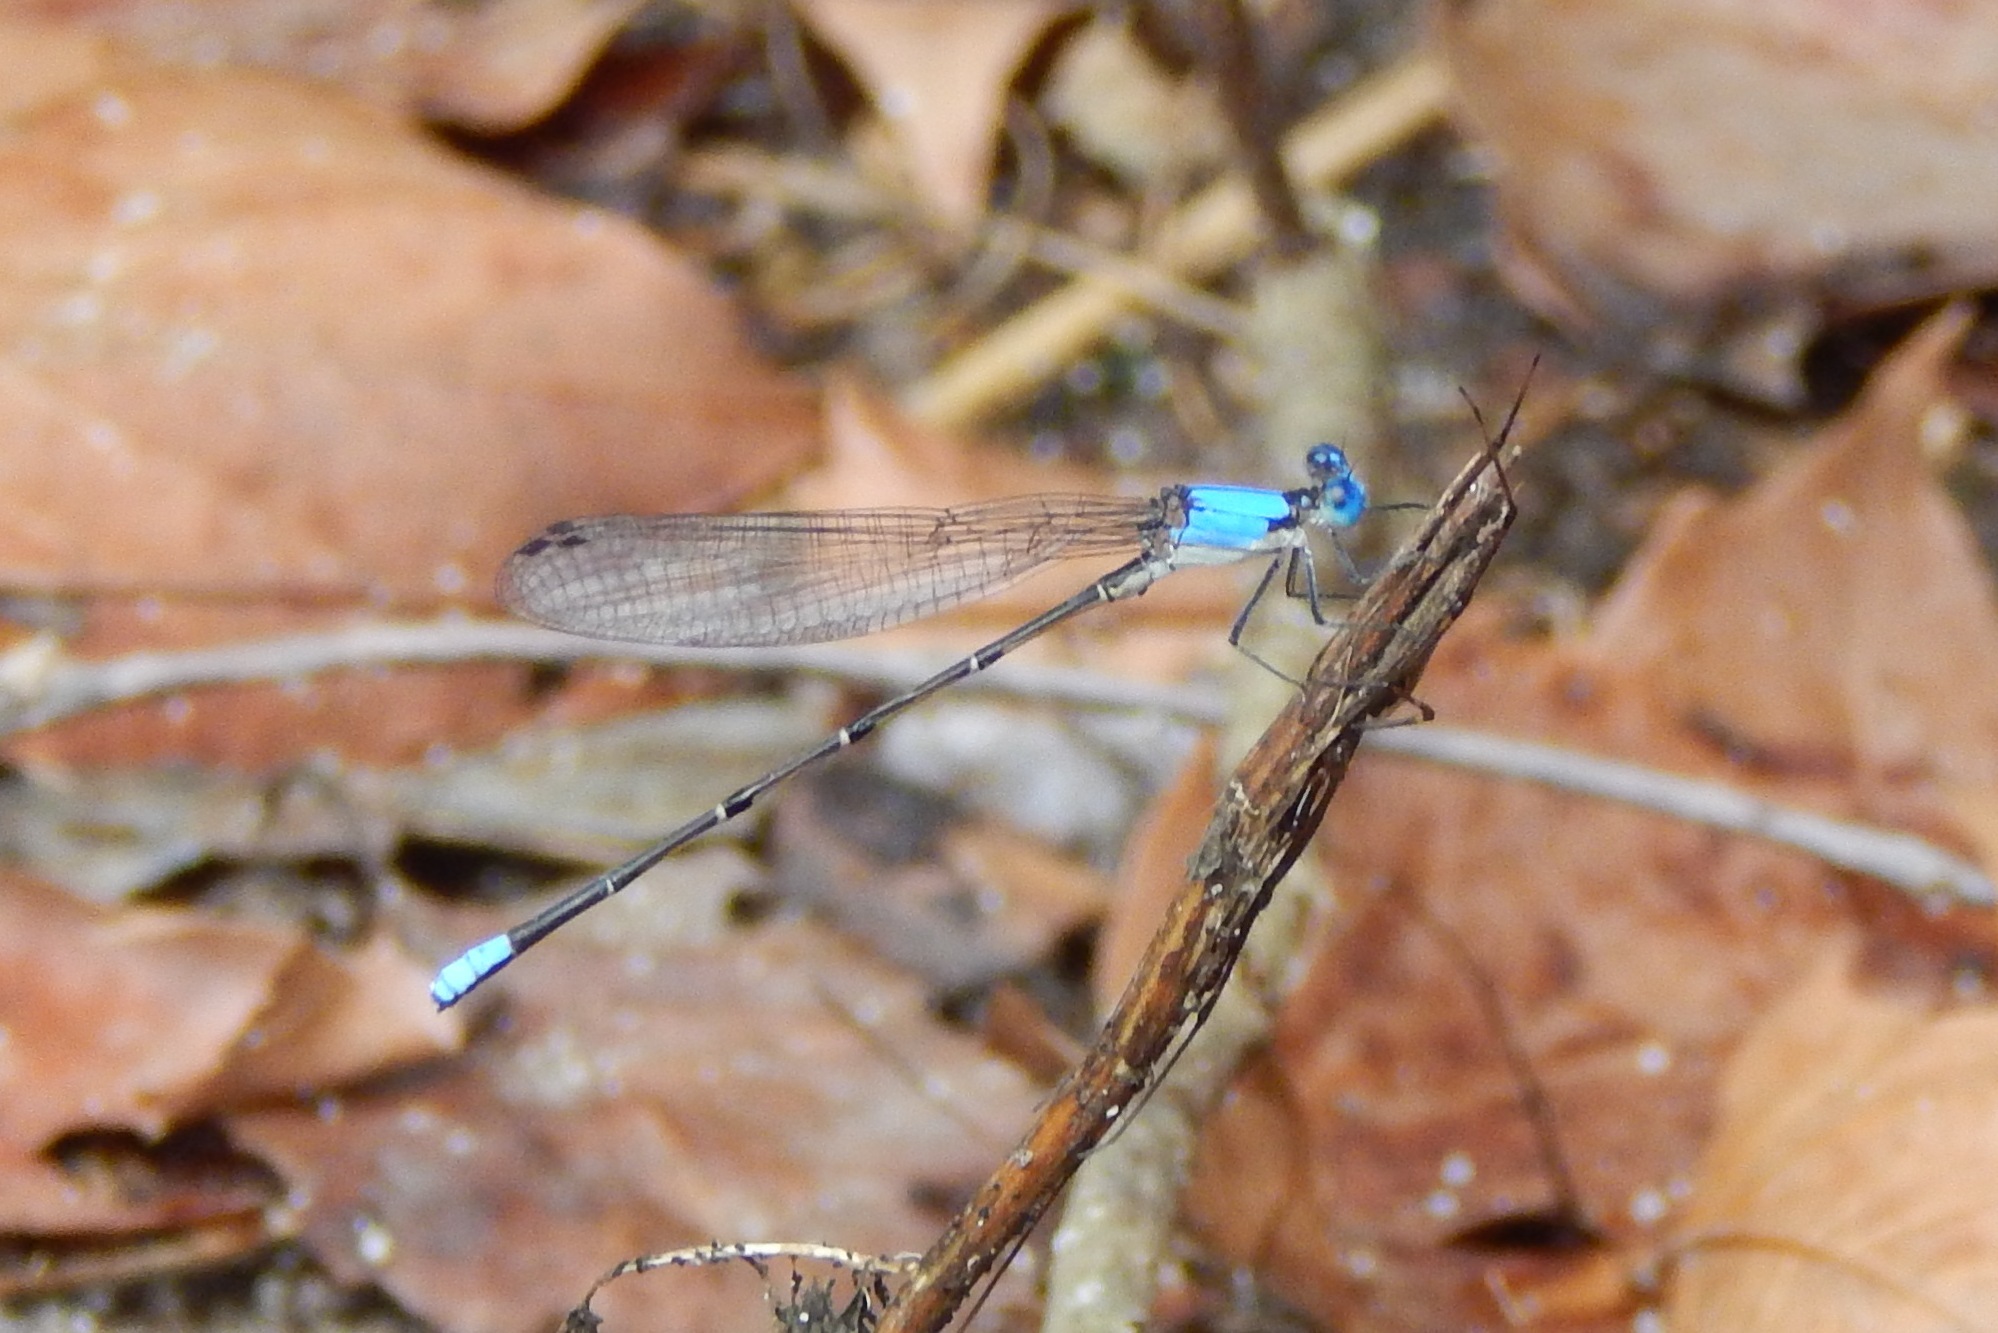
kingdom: Animalia
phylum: Arthropoda
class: Insecta
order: Odonata
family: Coenagrionidae
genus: Argia
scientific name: Argia apicalis
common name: Blue-fronted dancer
